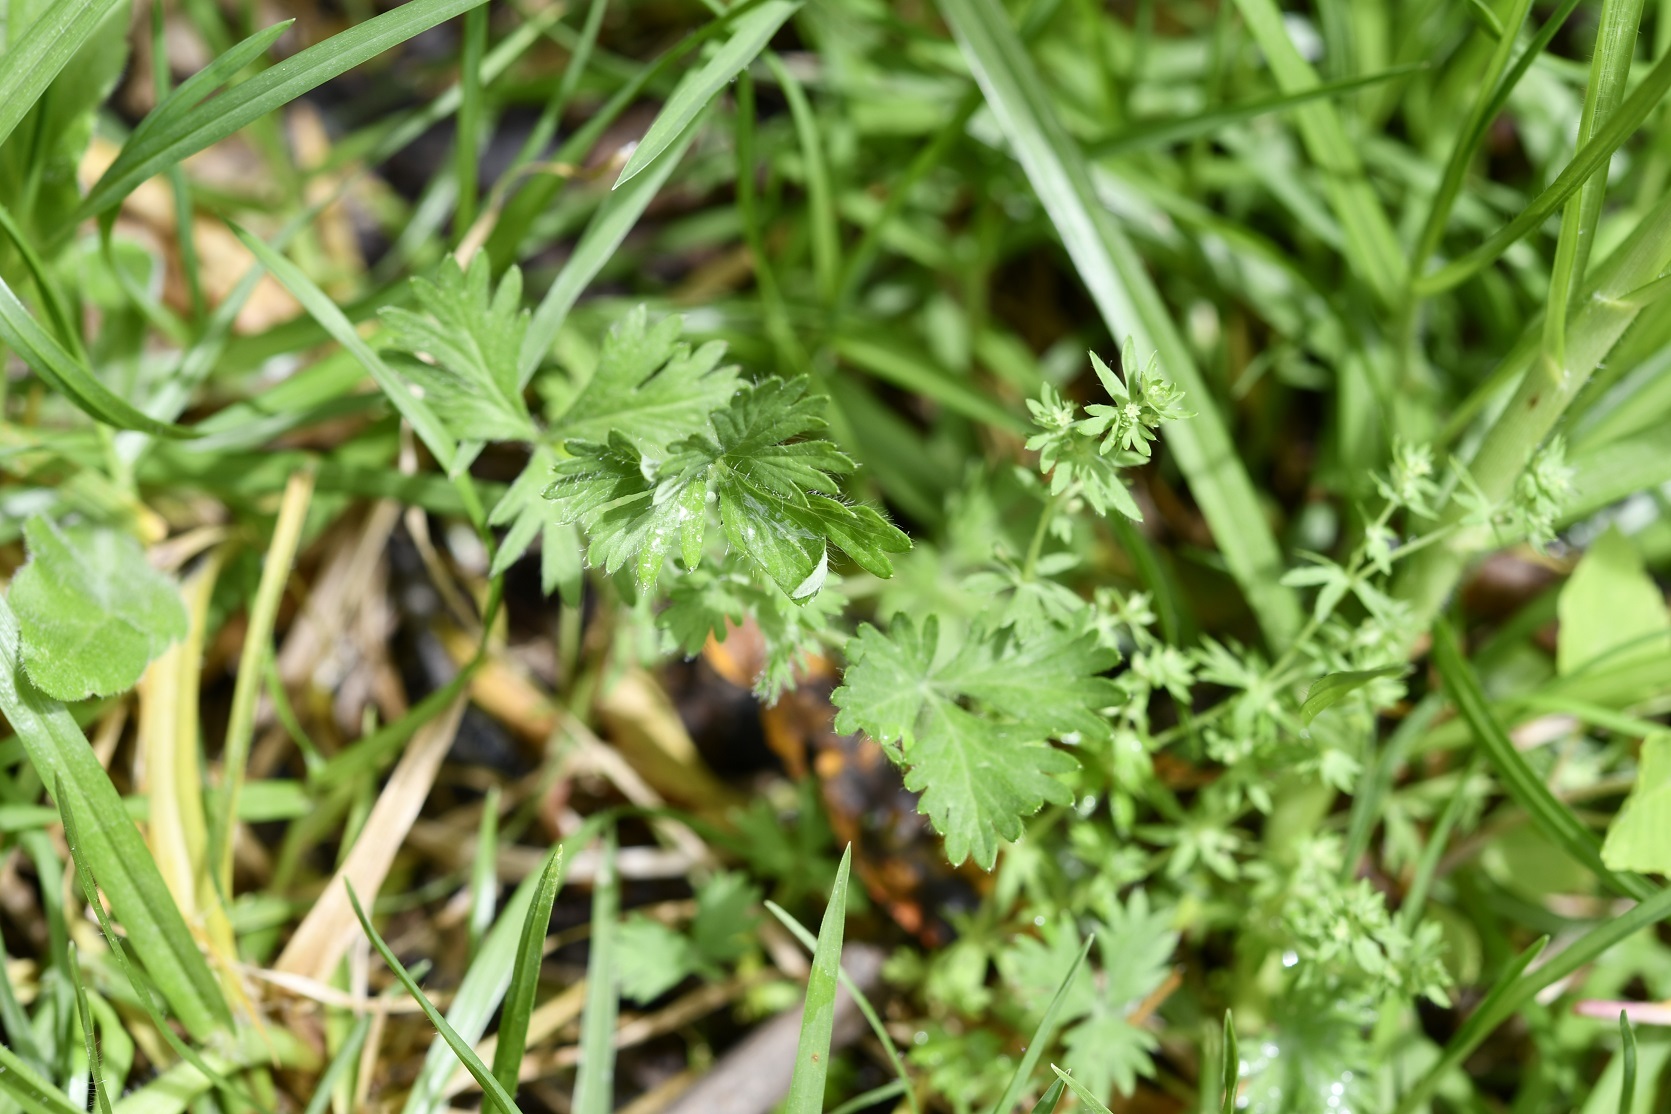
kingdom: Plantae
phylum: Tracheophyta
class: Magnoliopsida
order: Rosales
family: Rosaceae
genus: Lachemilla
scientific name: Lachemilla aphanoides
